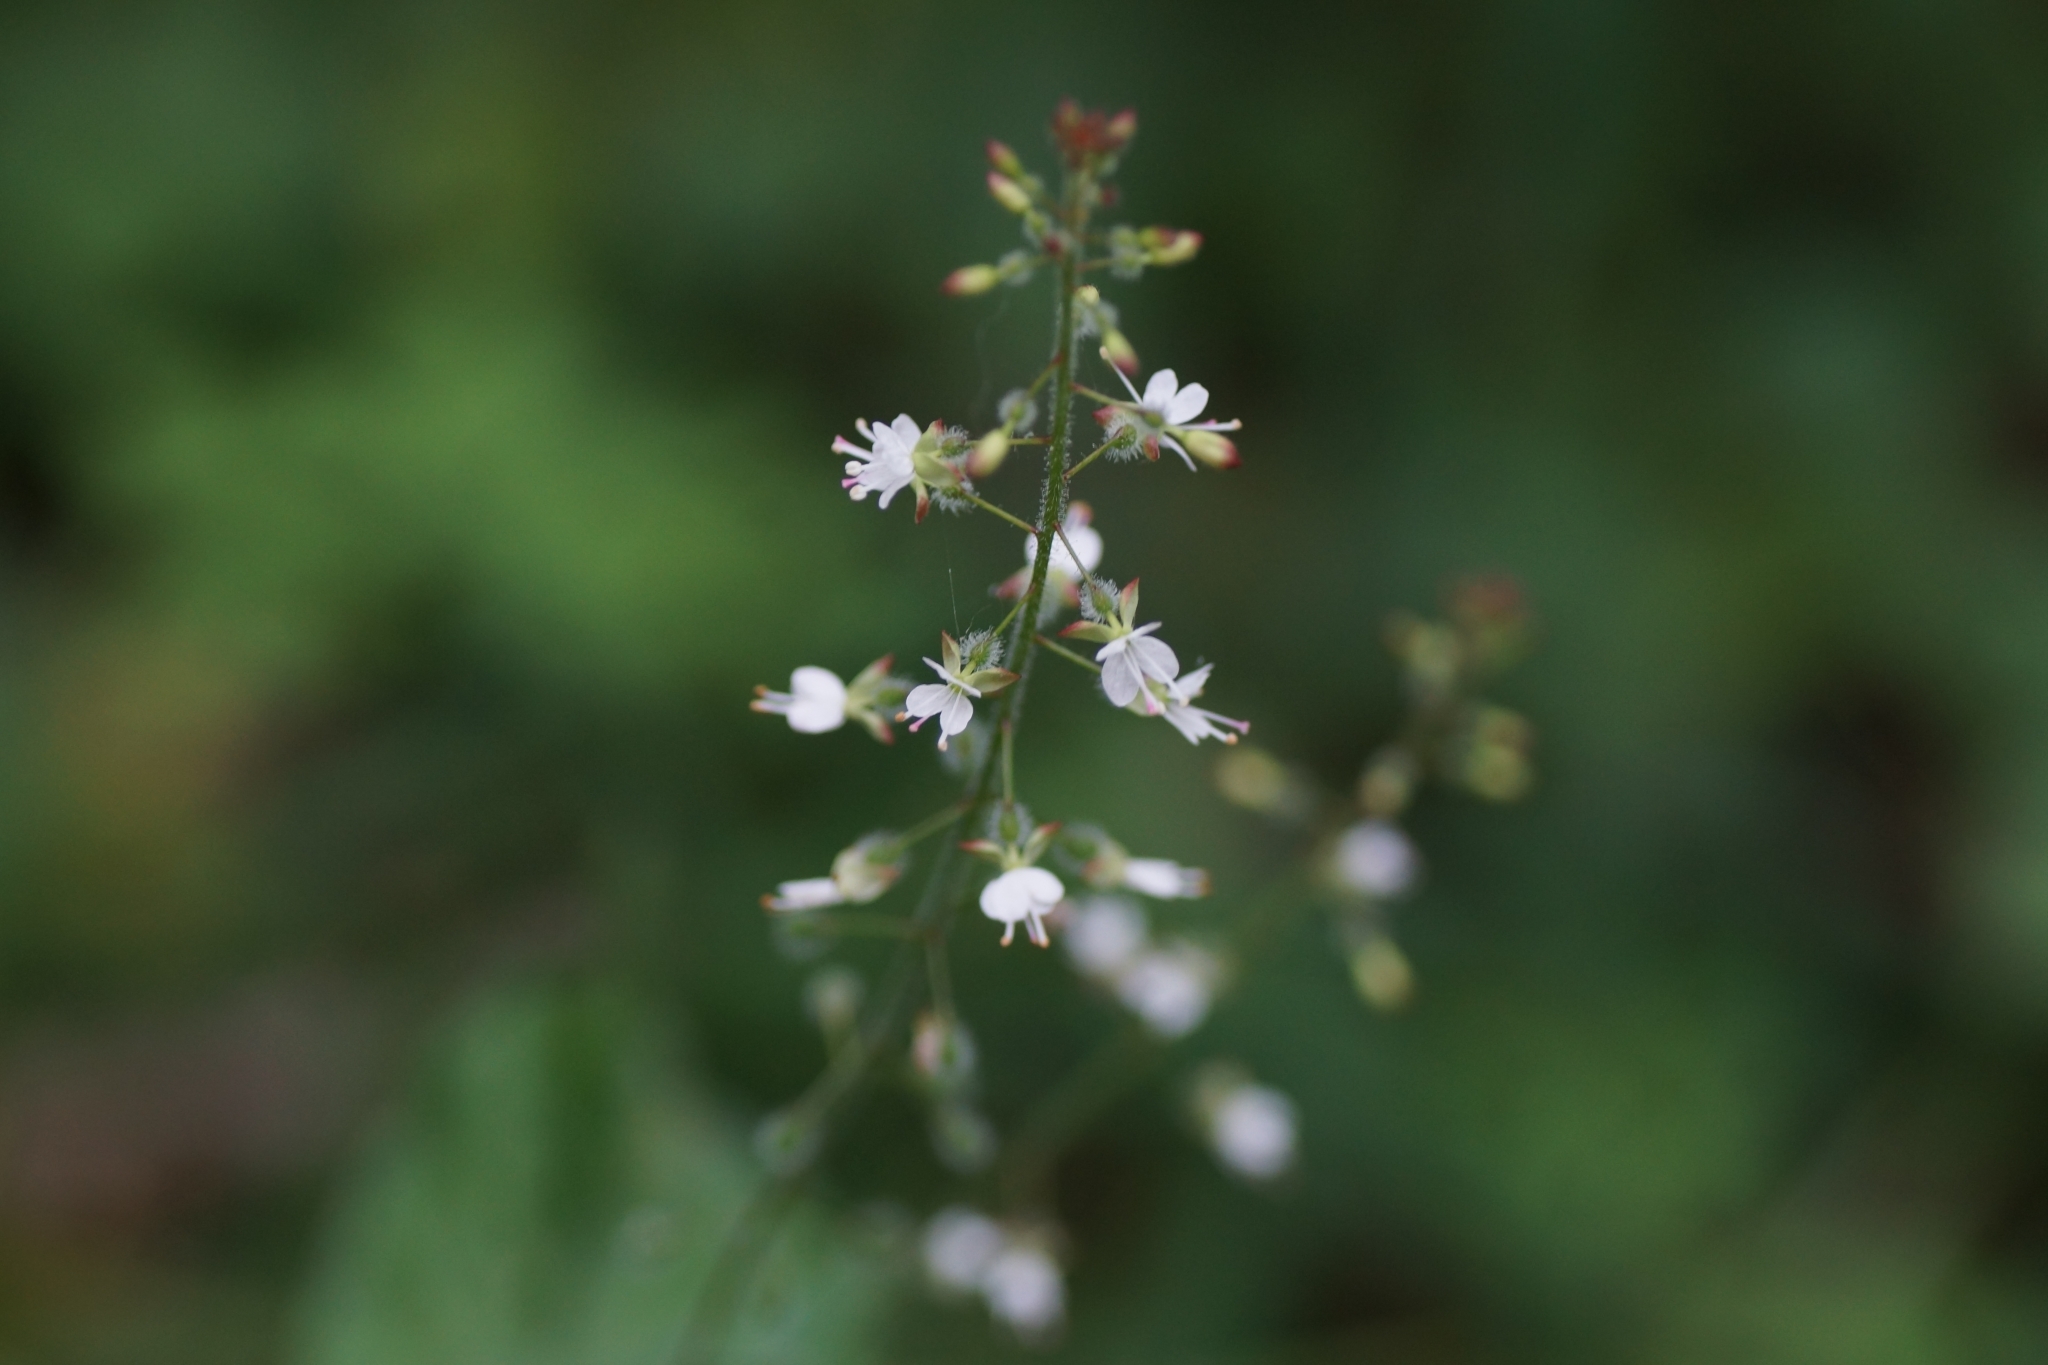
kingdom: Plantae
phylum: Tracheophyta
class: Magnoliopsida
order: Myrtales
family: Onagraceae
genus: Circaea
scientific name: Circaea lutetiana
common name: Enchanter's-nightshade
